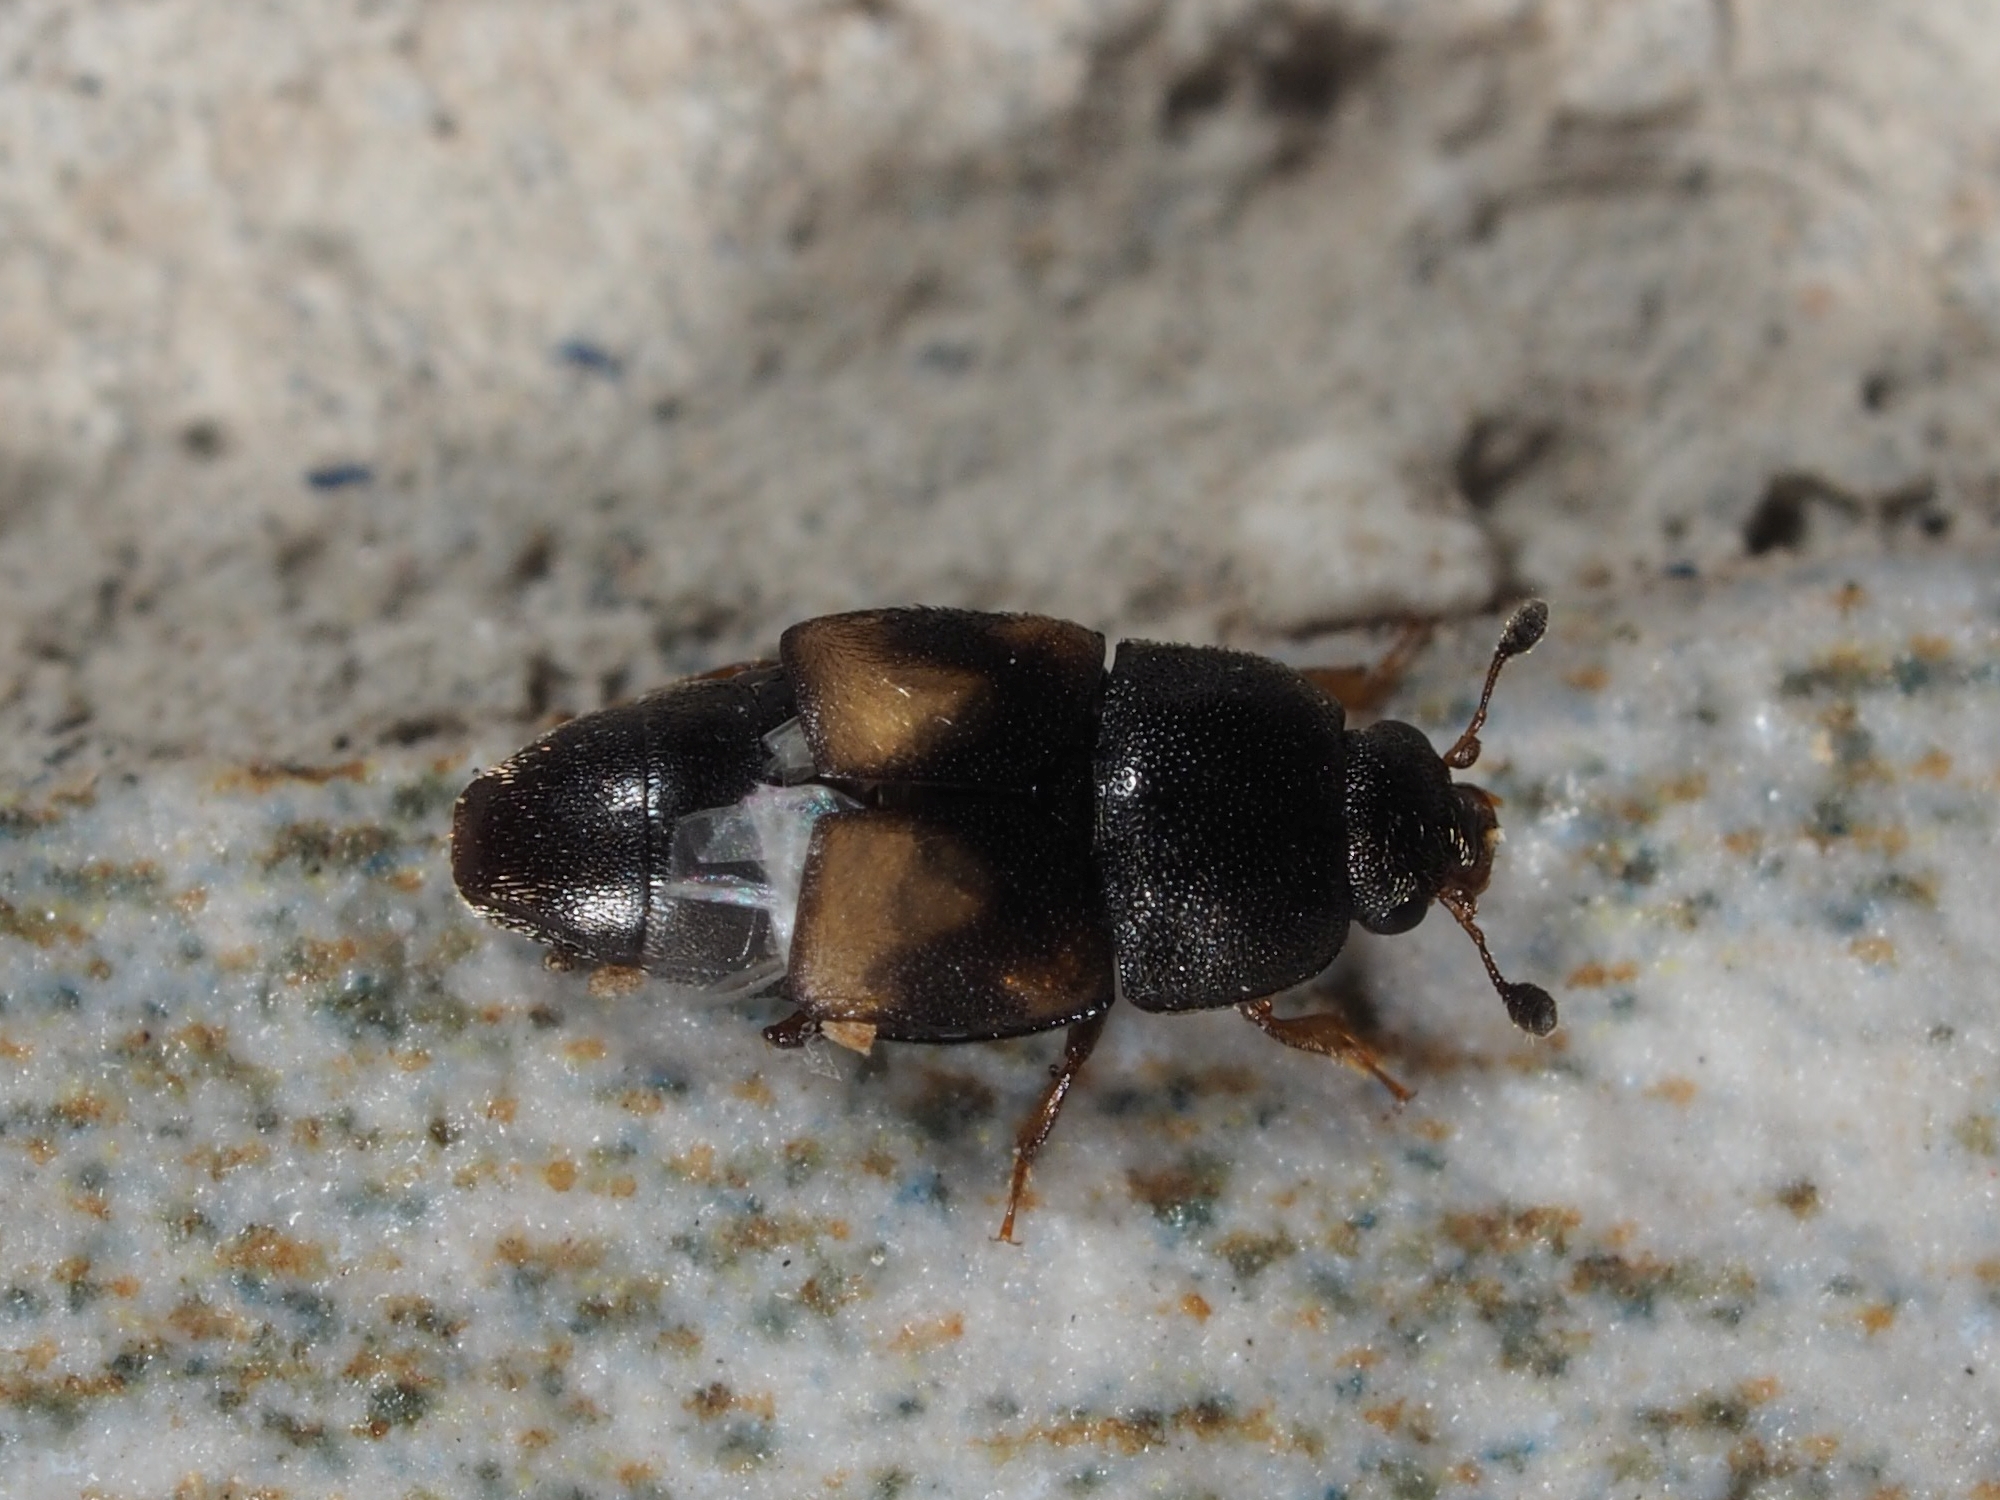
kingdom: Animalia
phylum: Arthropoda
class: Insecta
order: Coleoptera
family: Nitidulidae
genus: Carpophilus
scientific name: Carpophilus hemipterus
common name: Dried fruit beetle
